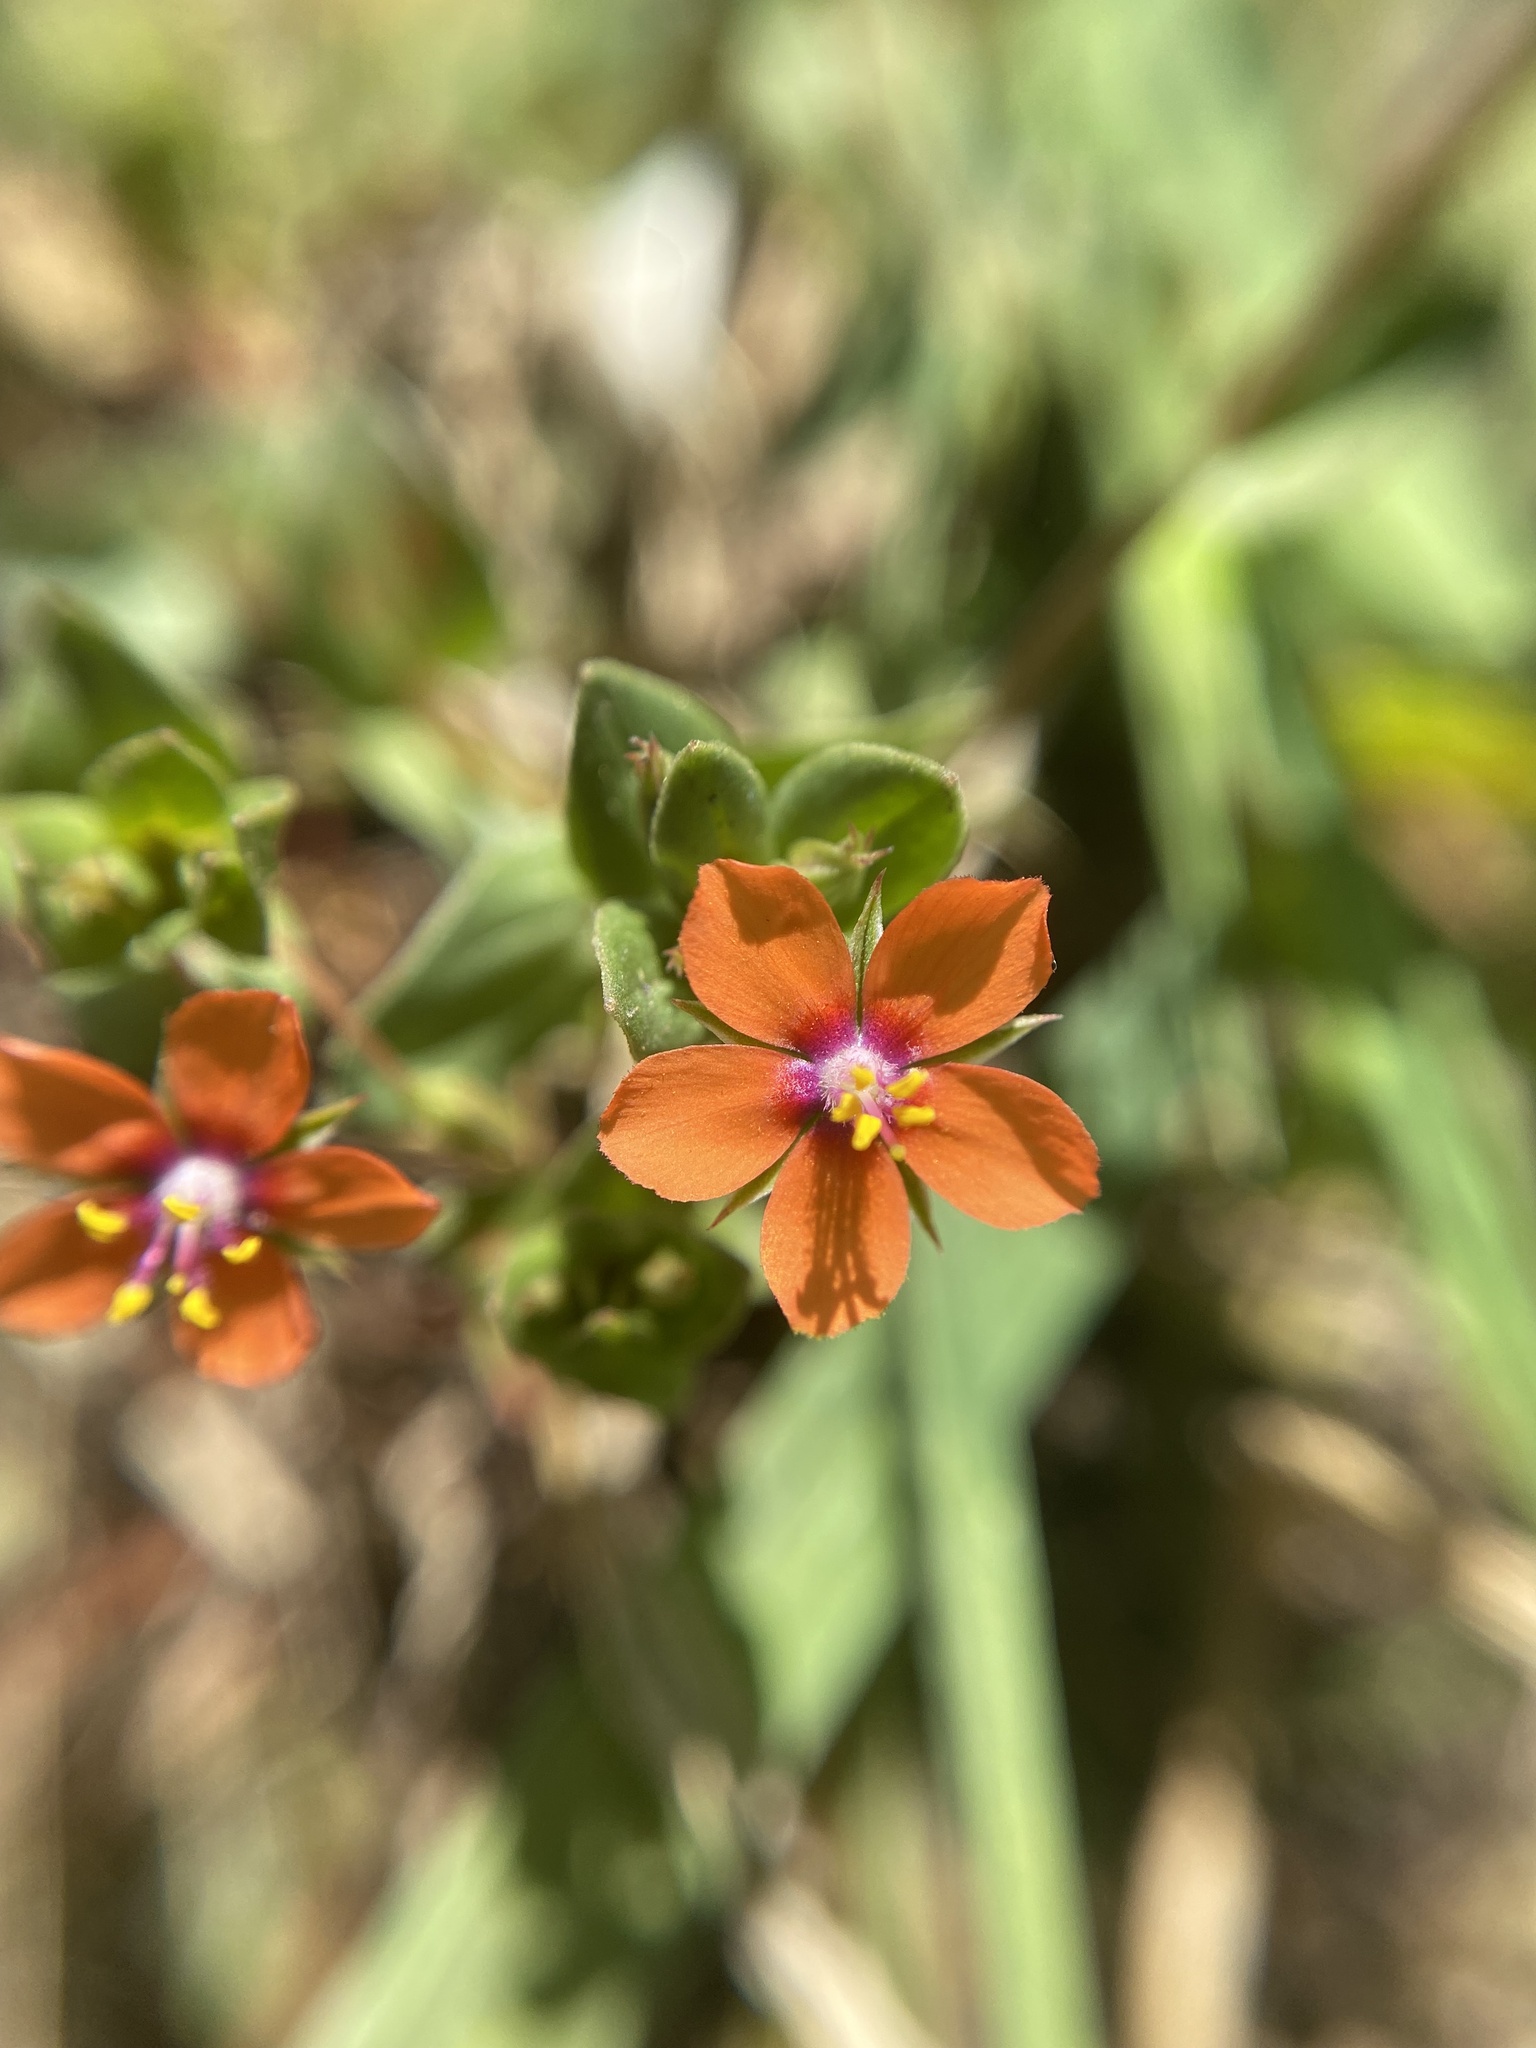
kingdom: Plantae
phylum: Tracheophyta
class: Magnoliopsida
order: Ericales
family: Primulaceae
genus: Lysimachia
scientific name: Lysimachia arvensis
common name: Scarlet pimpernel
